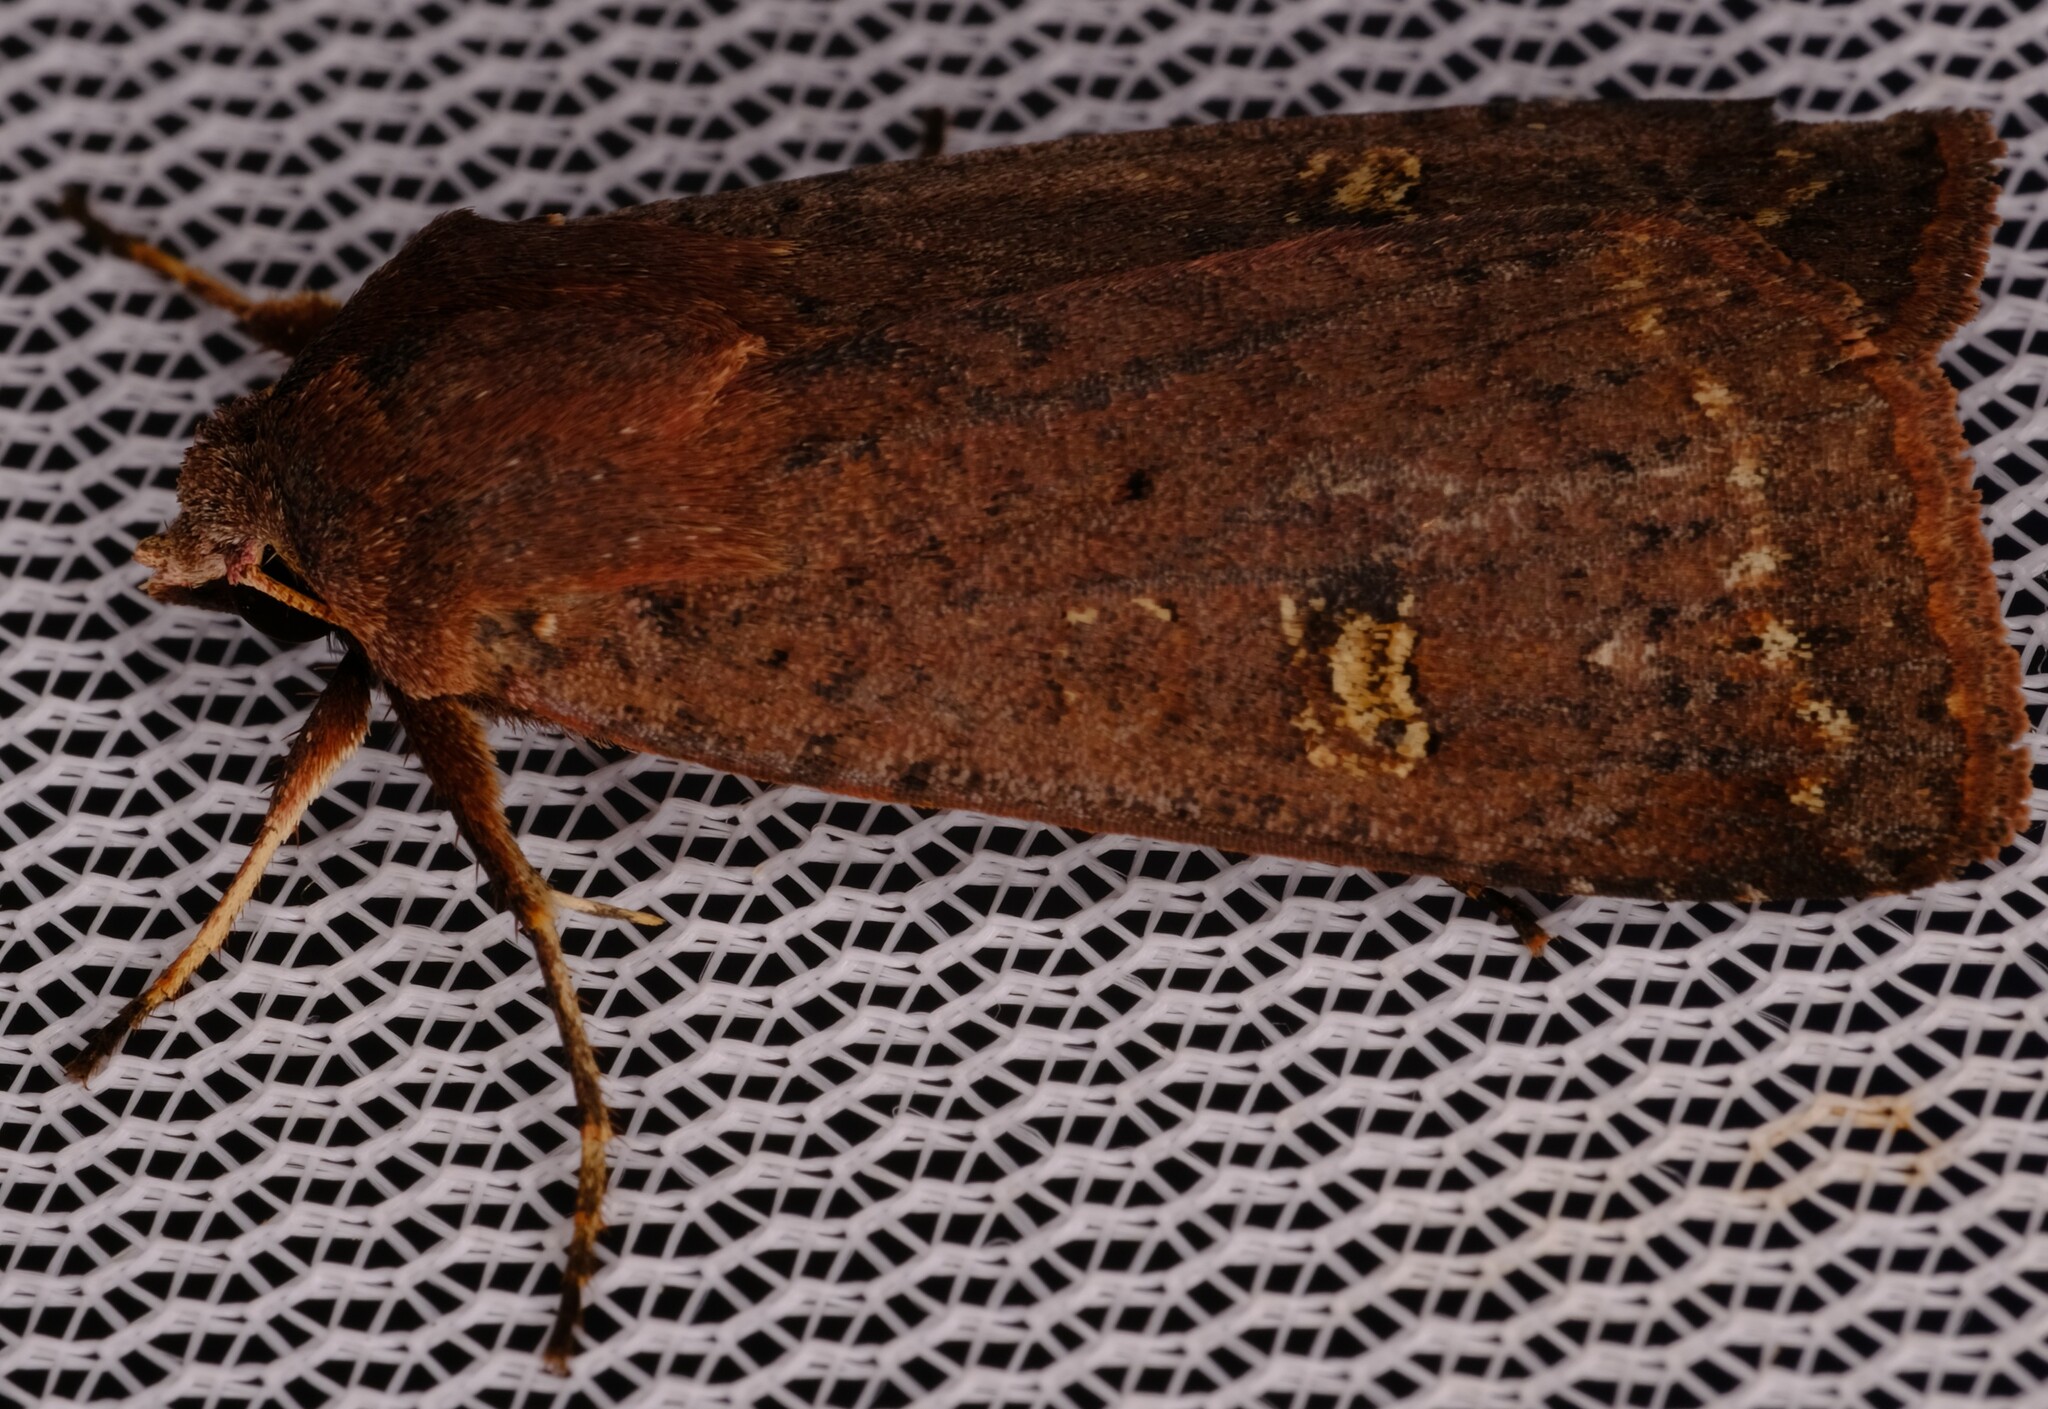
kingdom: Animalia
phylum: Arthropoda
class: Insecta
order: Lepidoptera
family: Noctuidae
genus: Diarsia
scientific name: Diarsia intermixta
